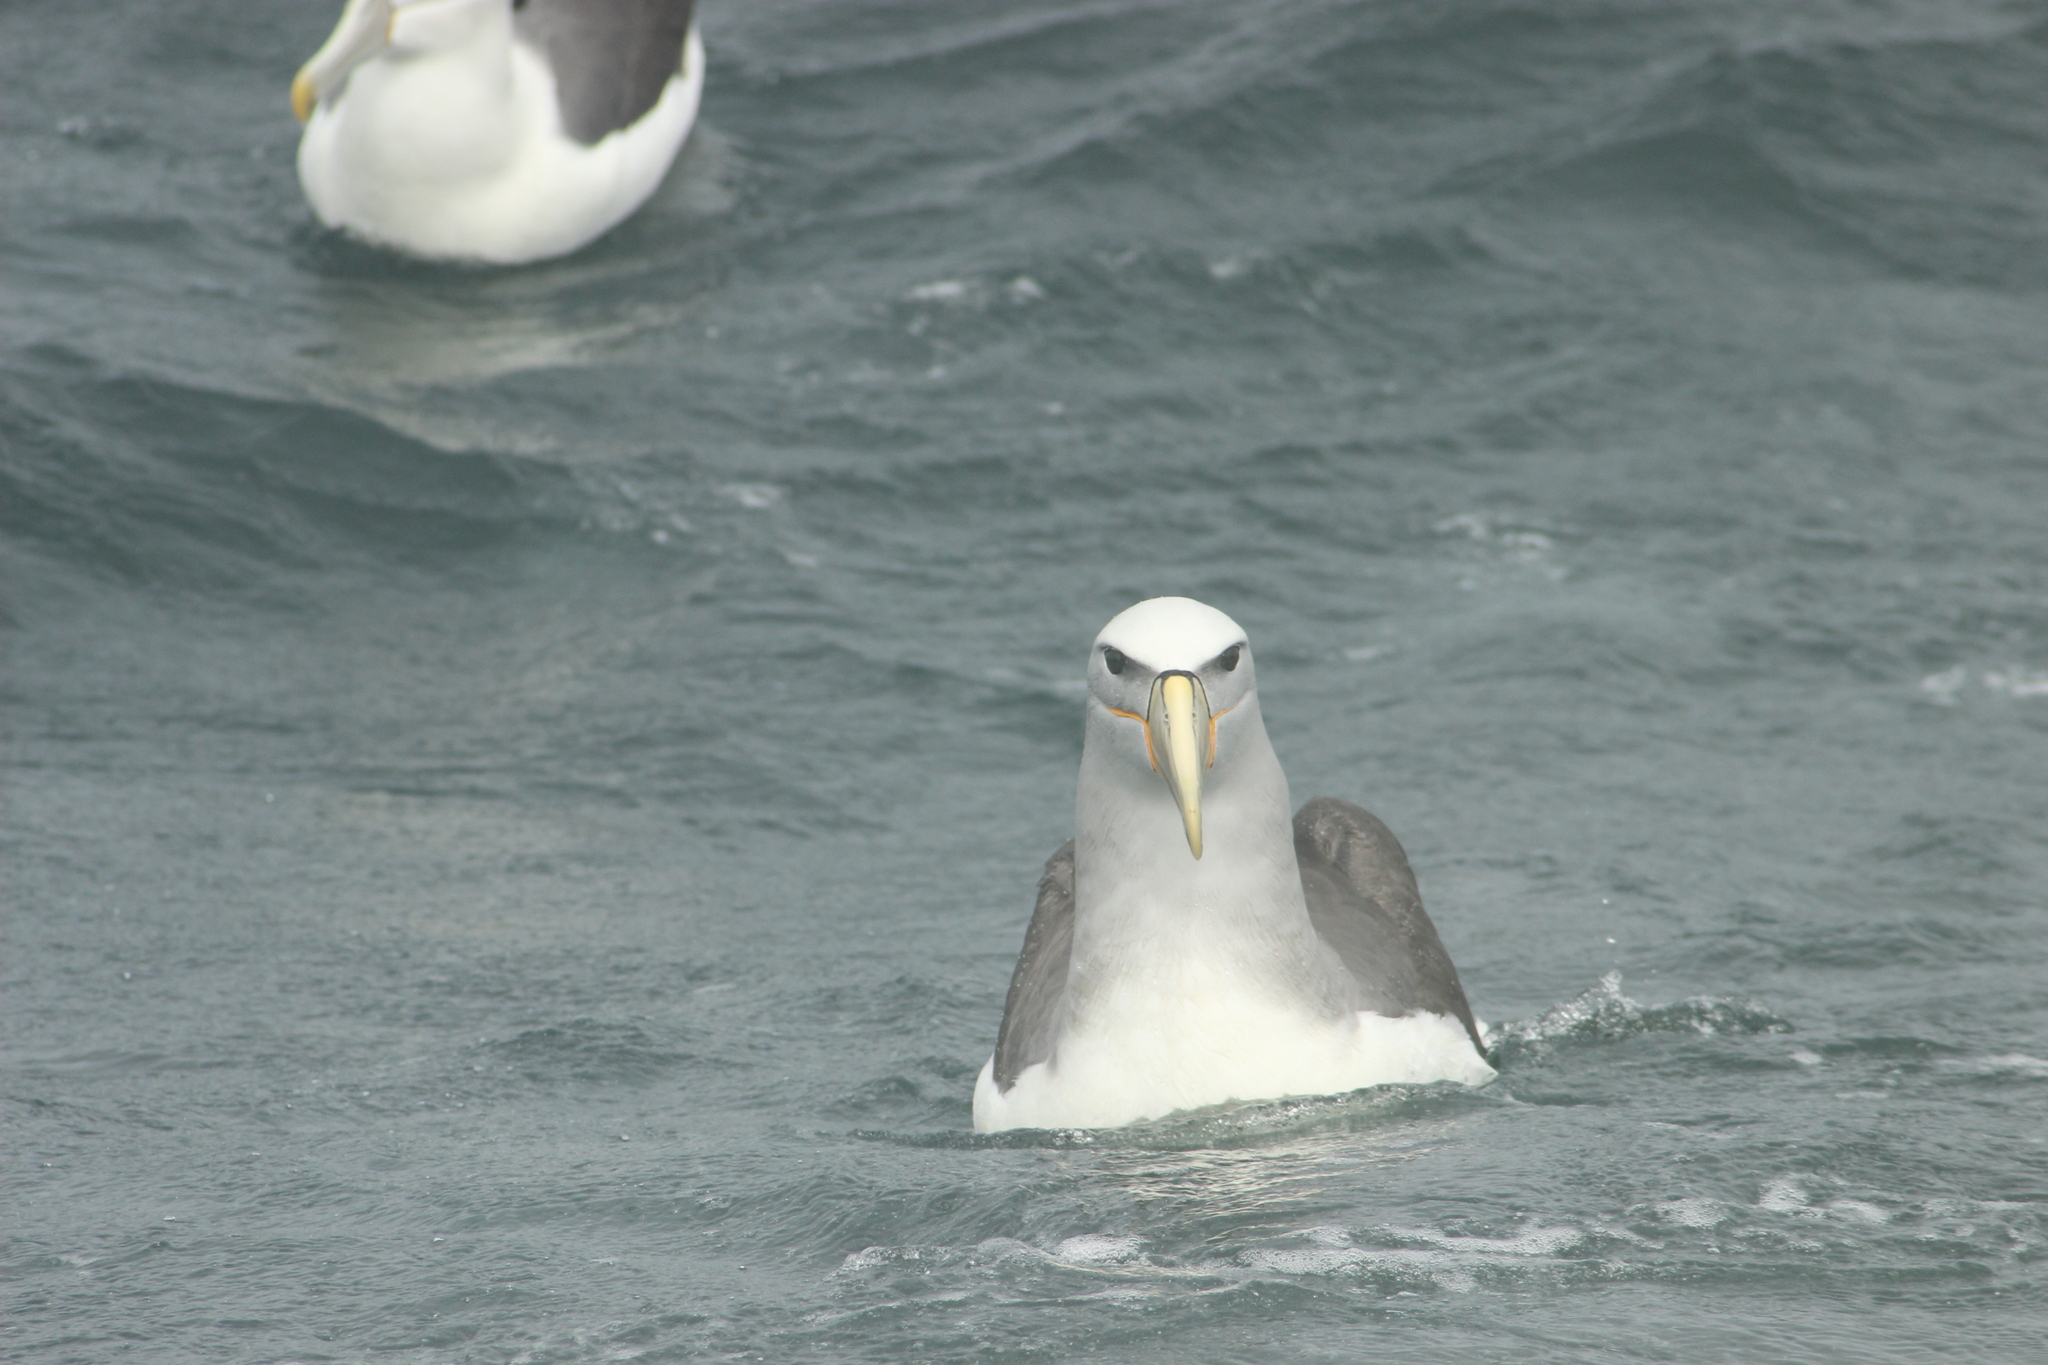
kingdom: Animalia
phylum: Chordata
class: Aves
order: Procellariiformes
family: Diomedeidae
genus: Thalassarche
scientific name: Thalassarche salvini
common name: Salvin's albatross
